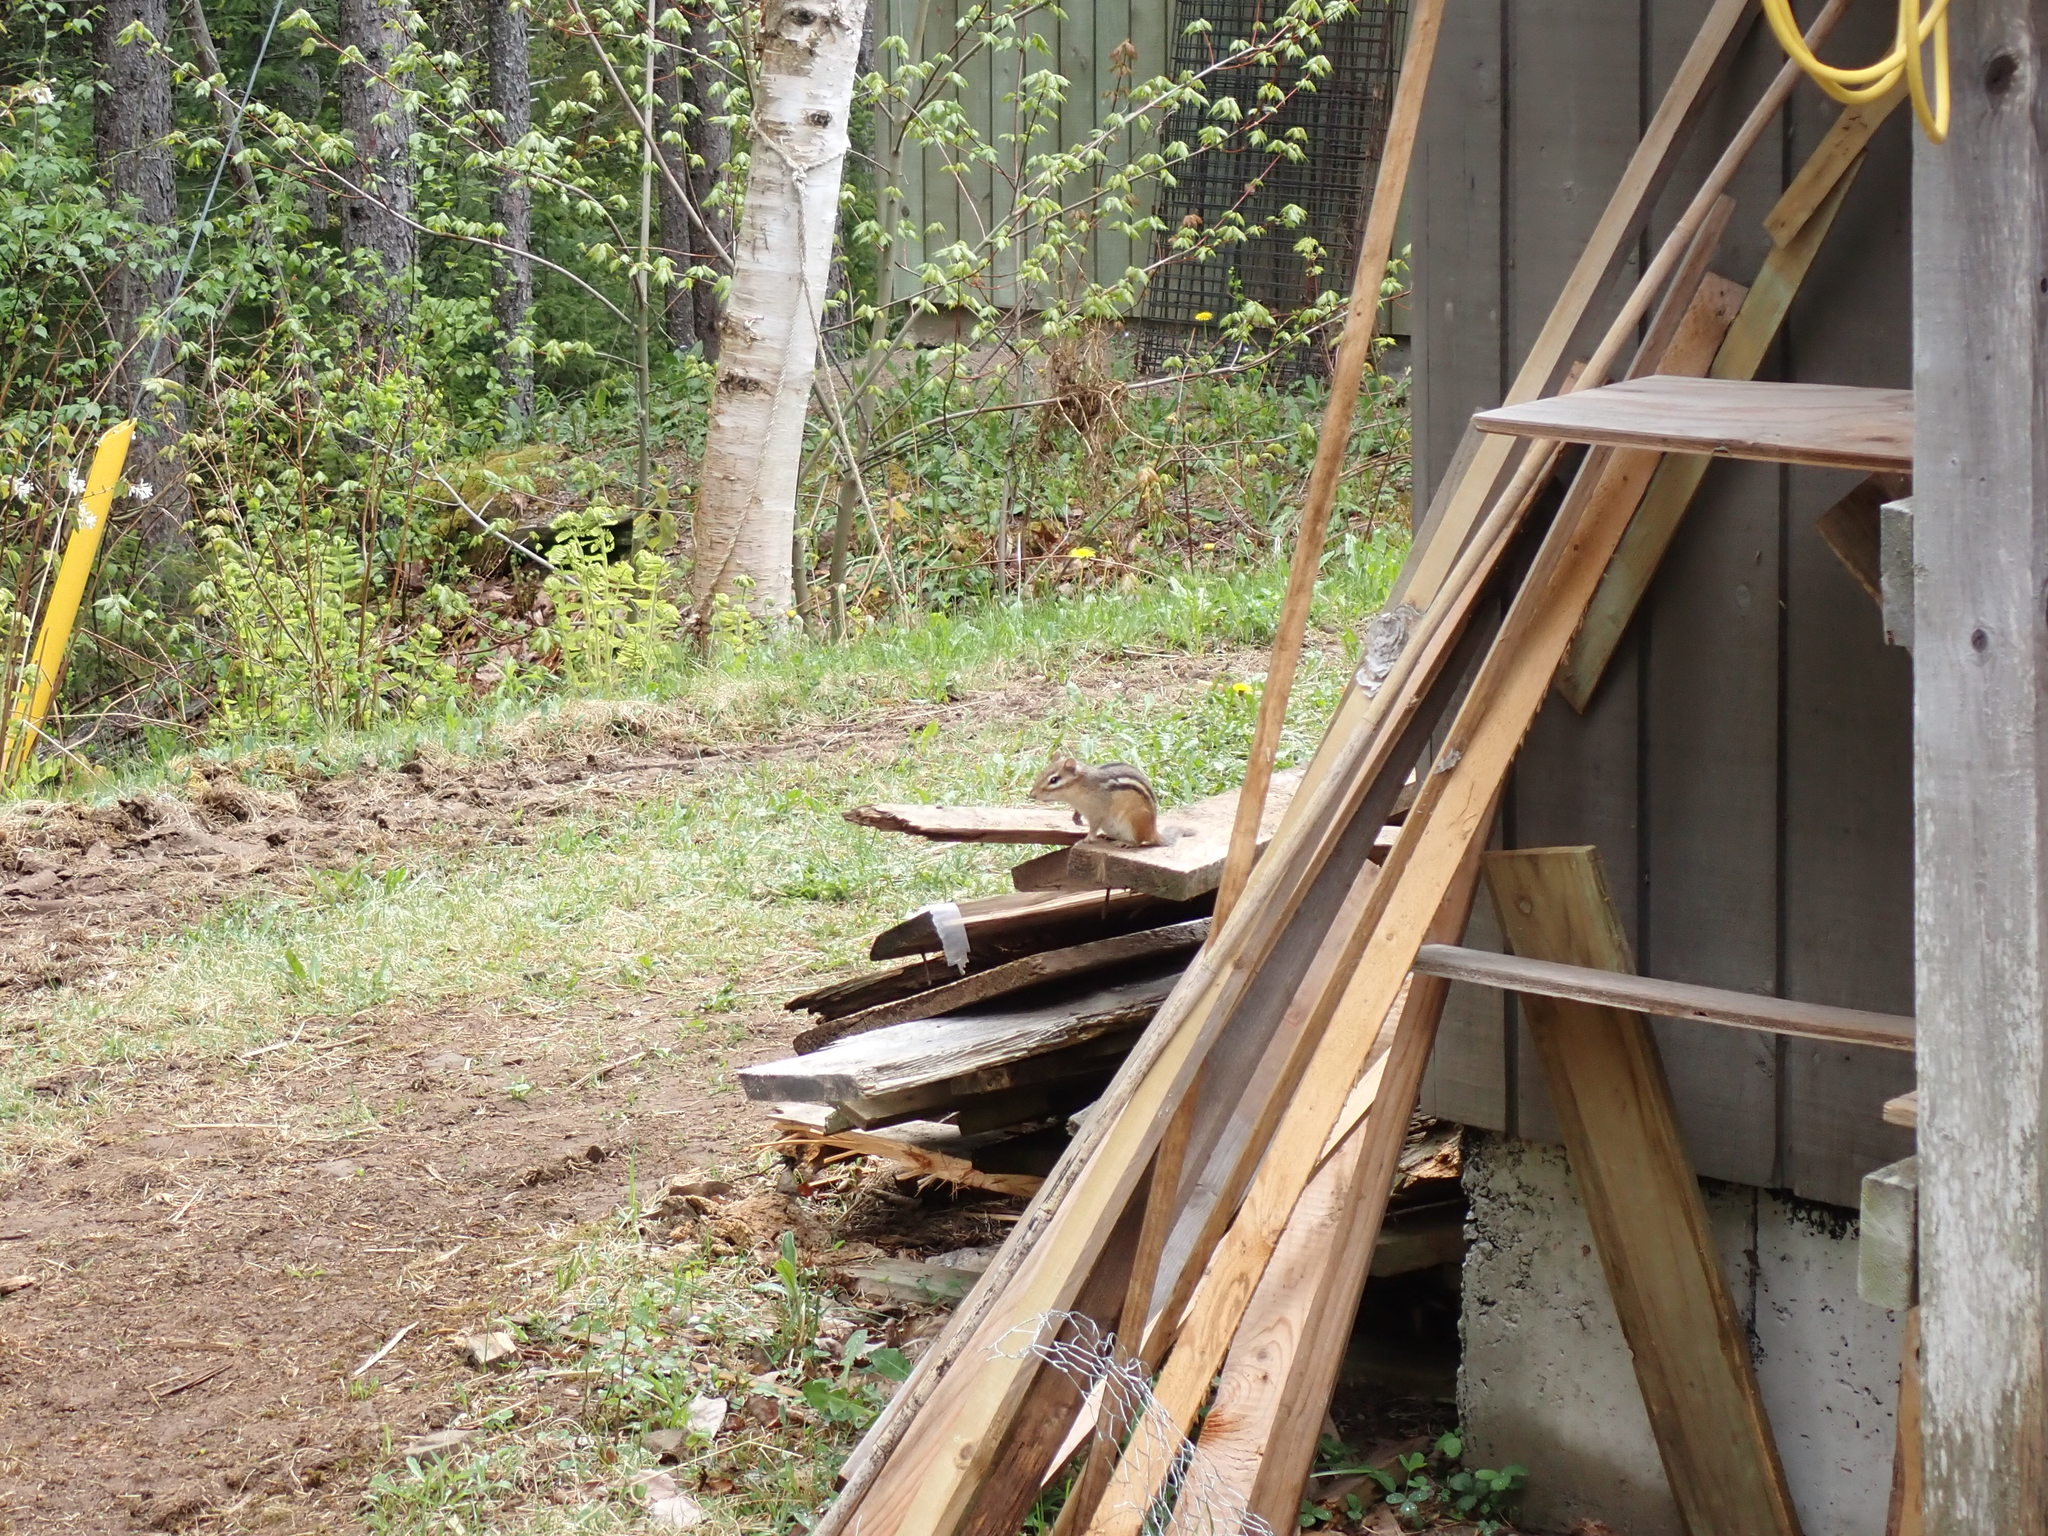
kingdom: Animalia
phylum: Chordata
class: Mammalia
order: Rodentia
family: Sciuridae
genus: Tamias
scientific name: Tamias striatus
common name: Eastern chipmunk
